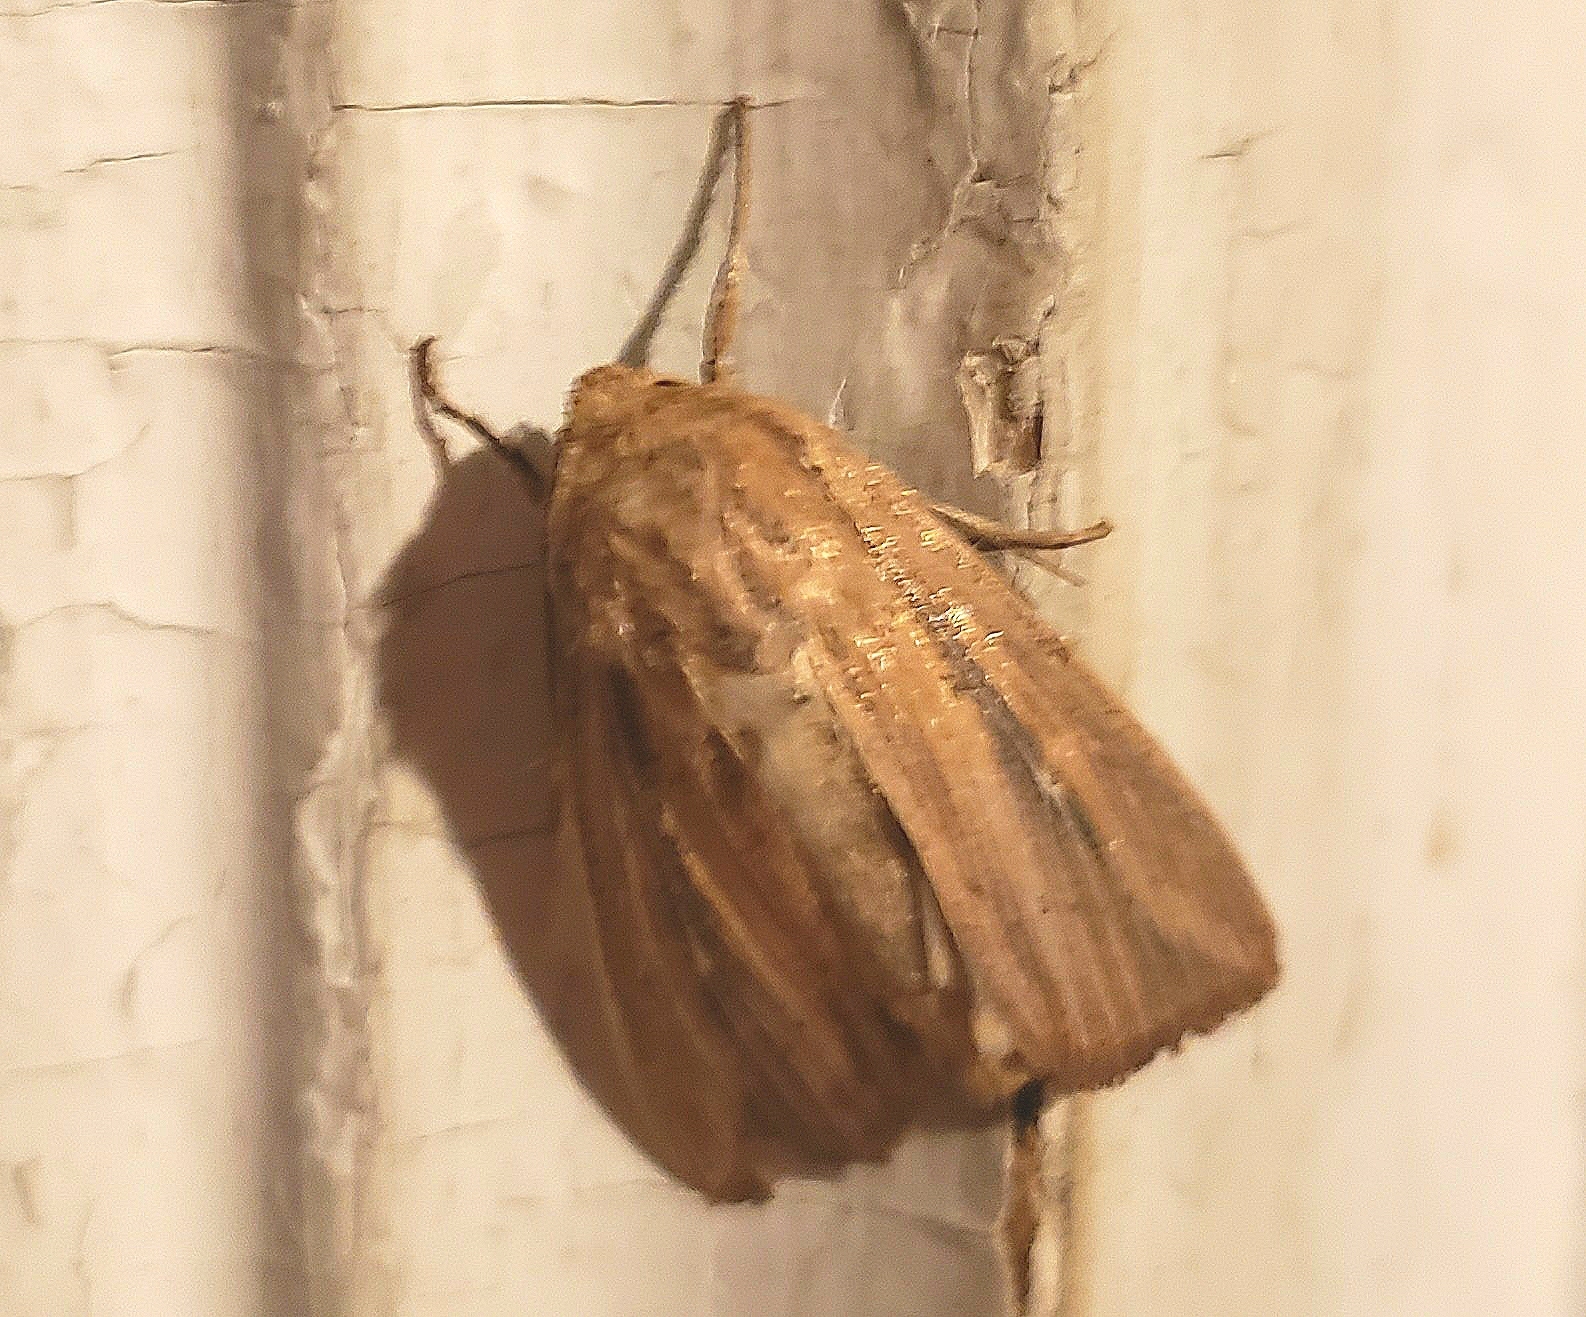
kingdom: Animalia
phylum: Arthropoda
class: Insecta
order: Lepidoptera
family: Noctuidae
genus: Leucania
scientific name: Leucania linda
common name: Linda's wainscot
